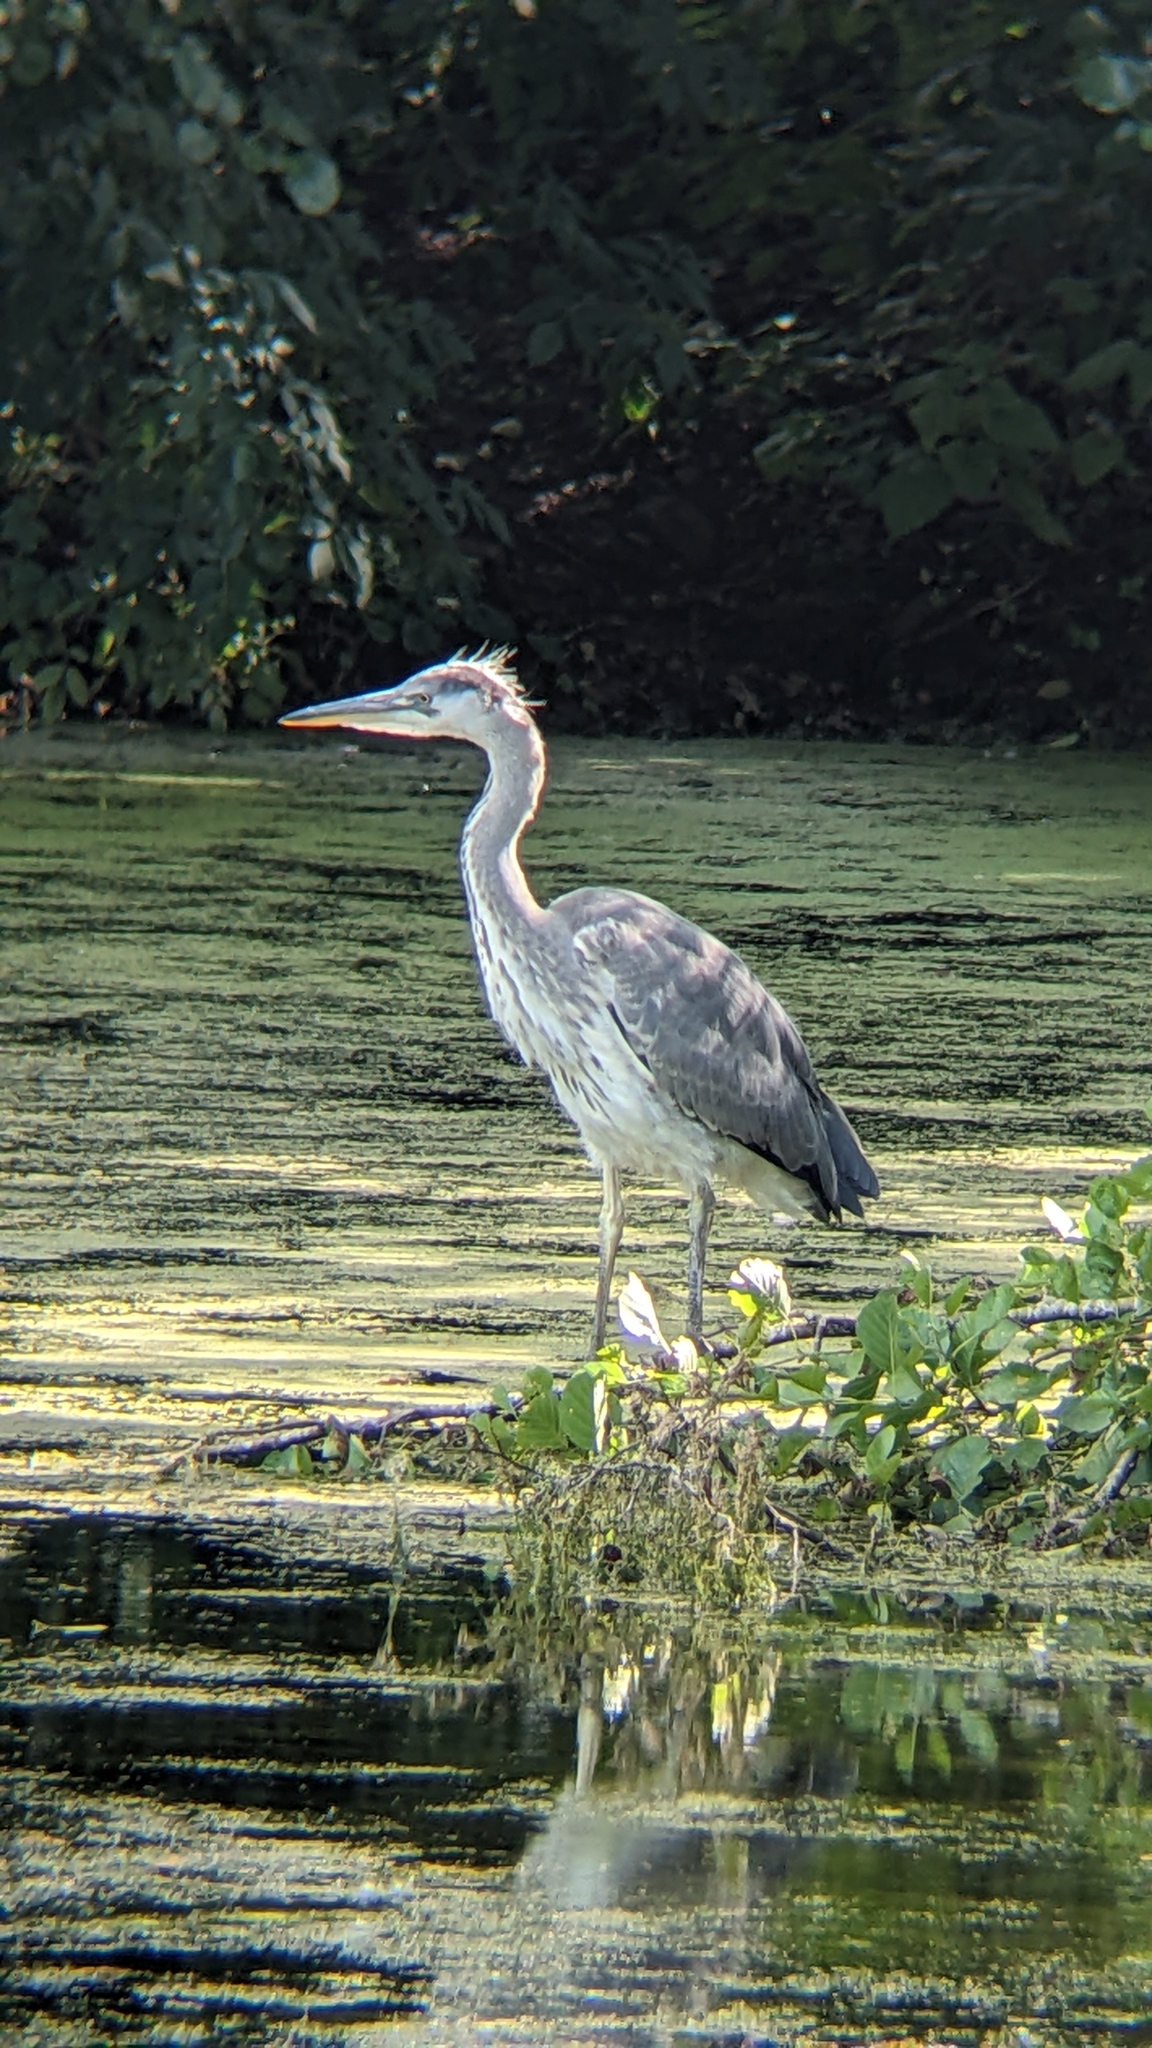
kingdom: Animalia
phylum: Chordata
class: Aves
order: Pelecaniformes
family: Ardeidae
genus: Ardea
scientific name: Ardea cinerea
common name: Grey heron
